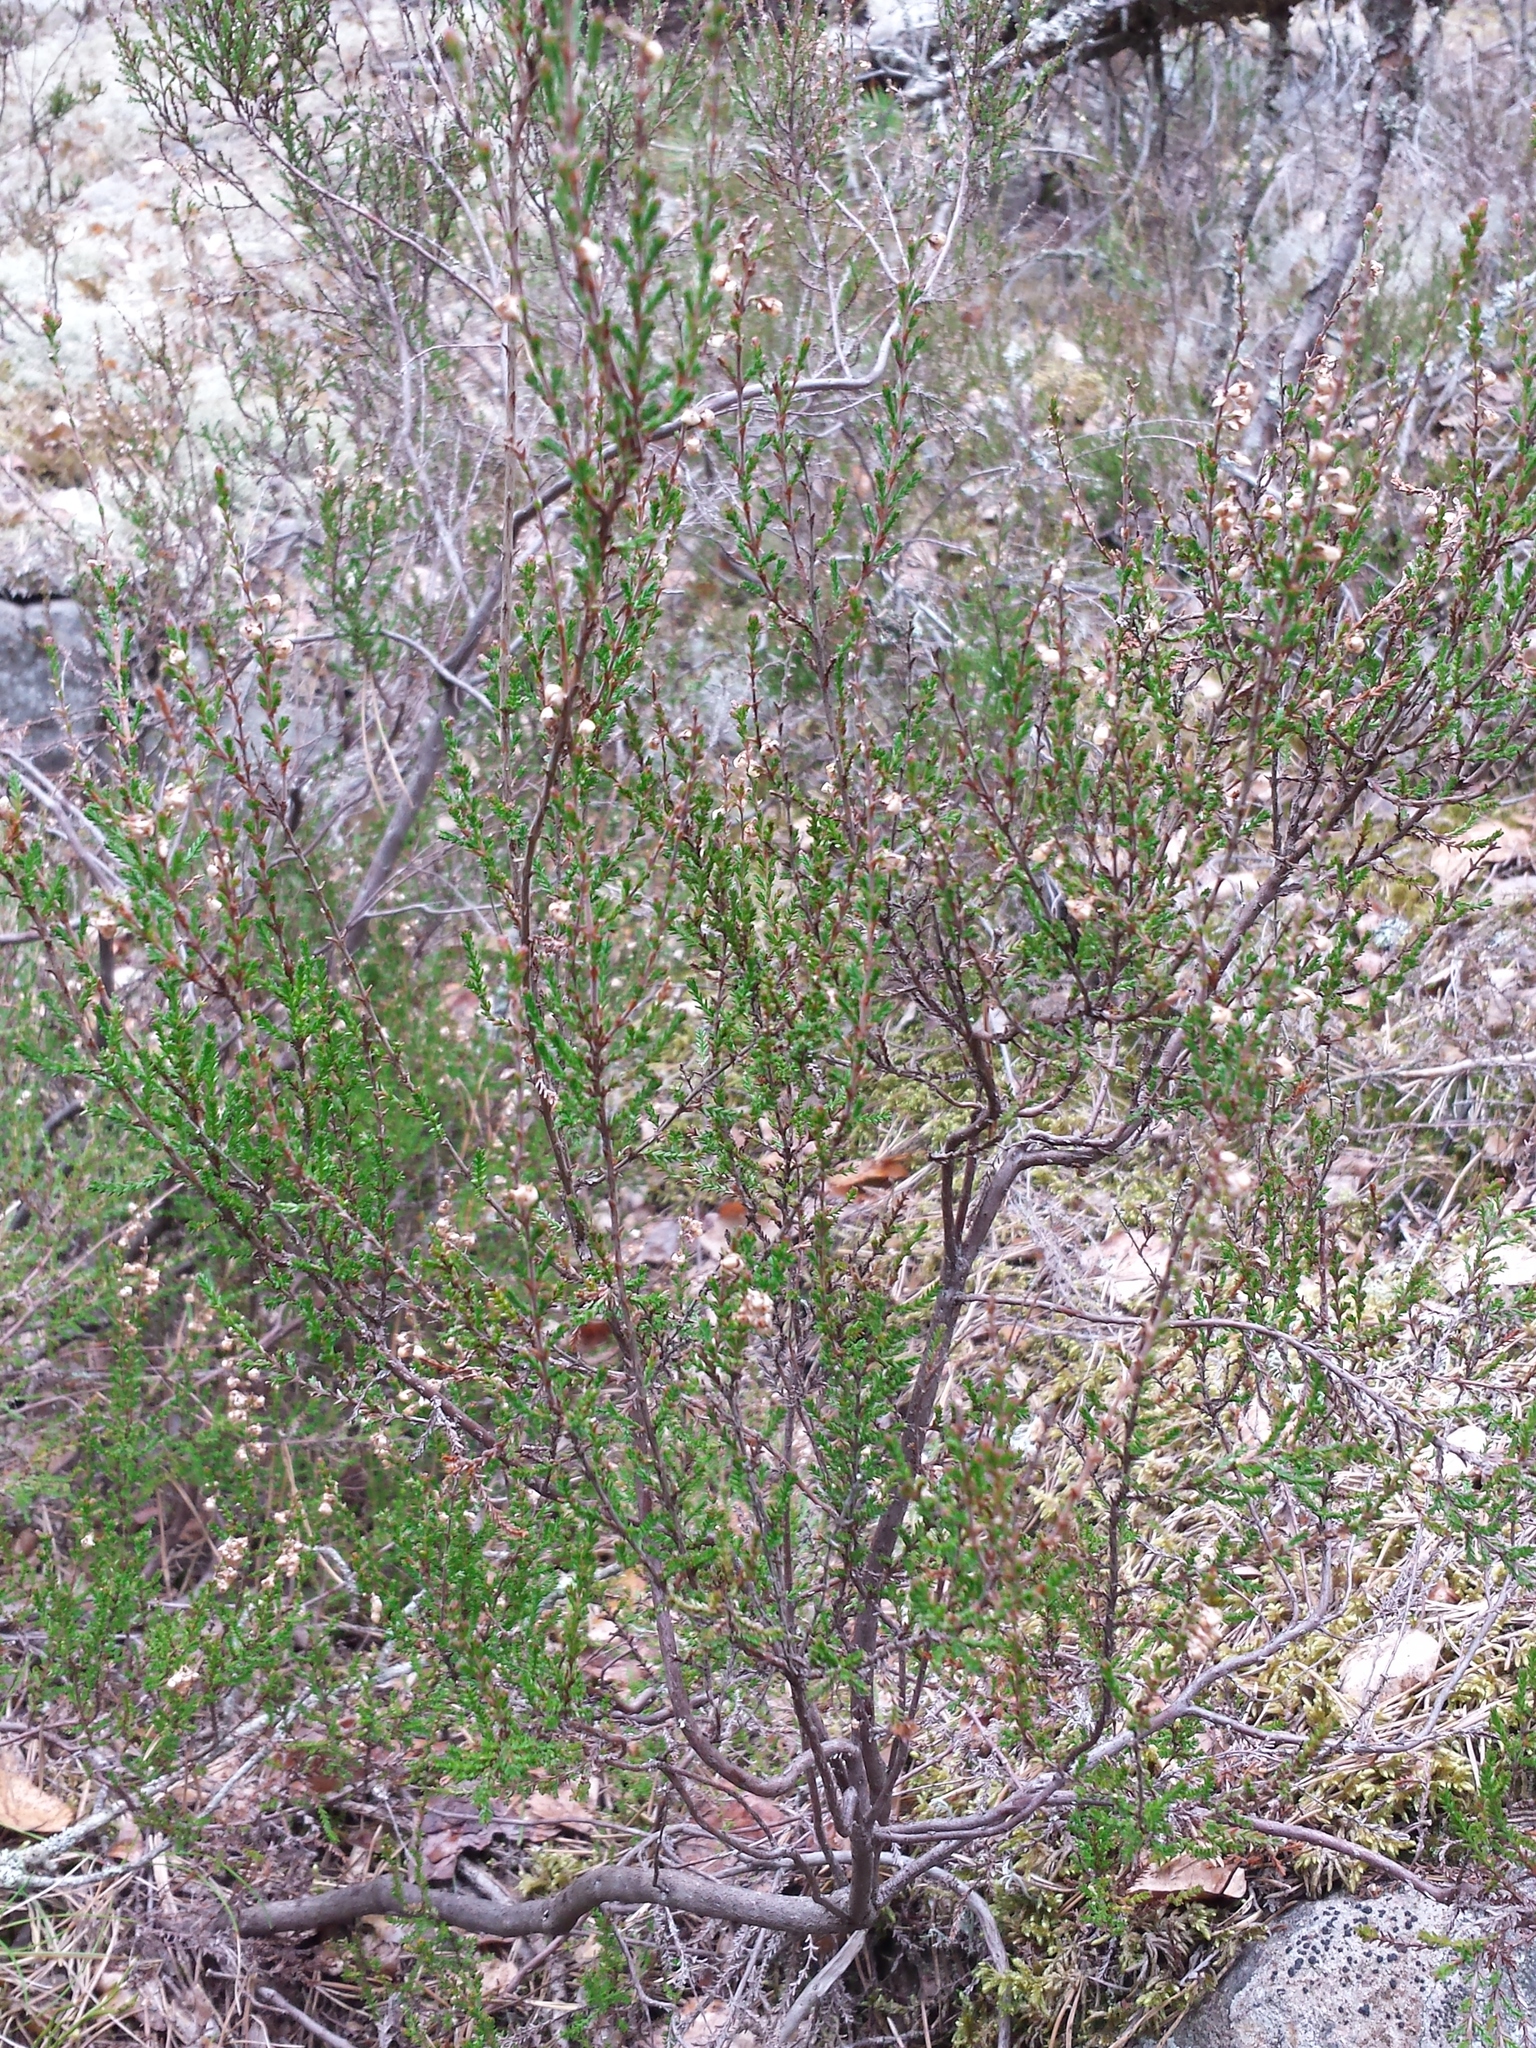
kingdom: Plantae
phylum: Tracheophyta
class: Magnoliopsida
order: Ericales
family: Ericaceae
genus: Calluna
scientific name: Calluna vulgaris
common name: Heather
